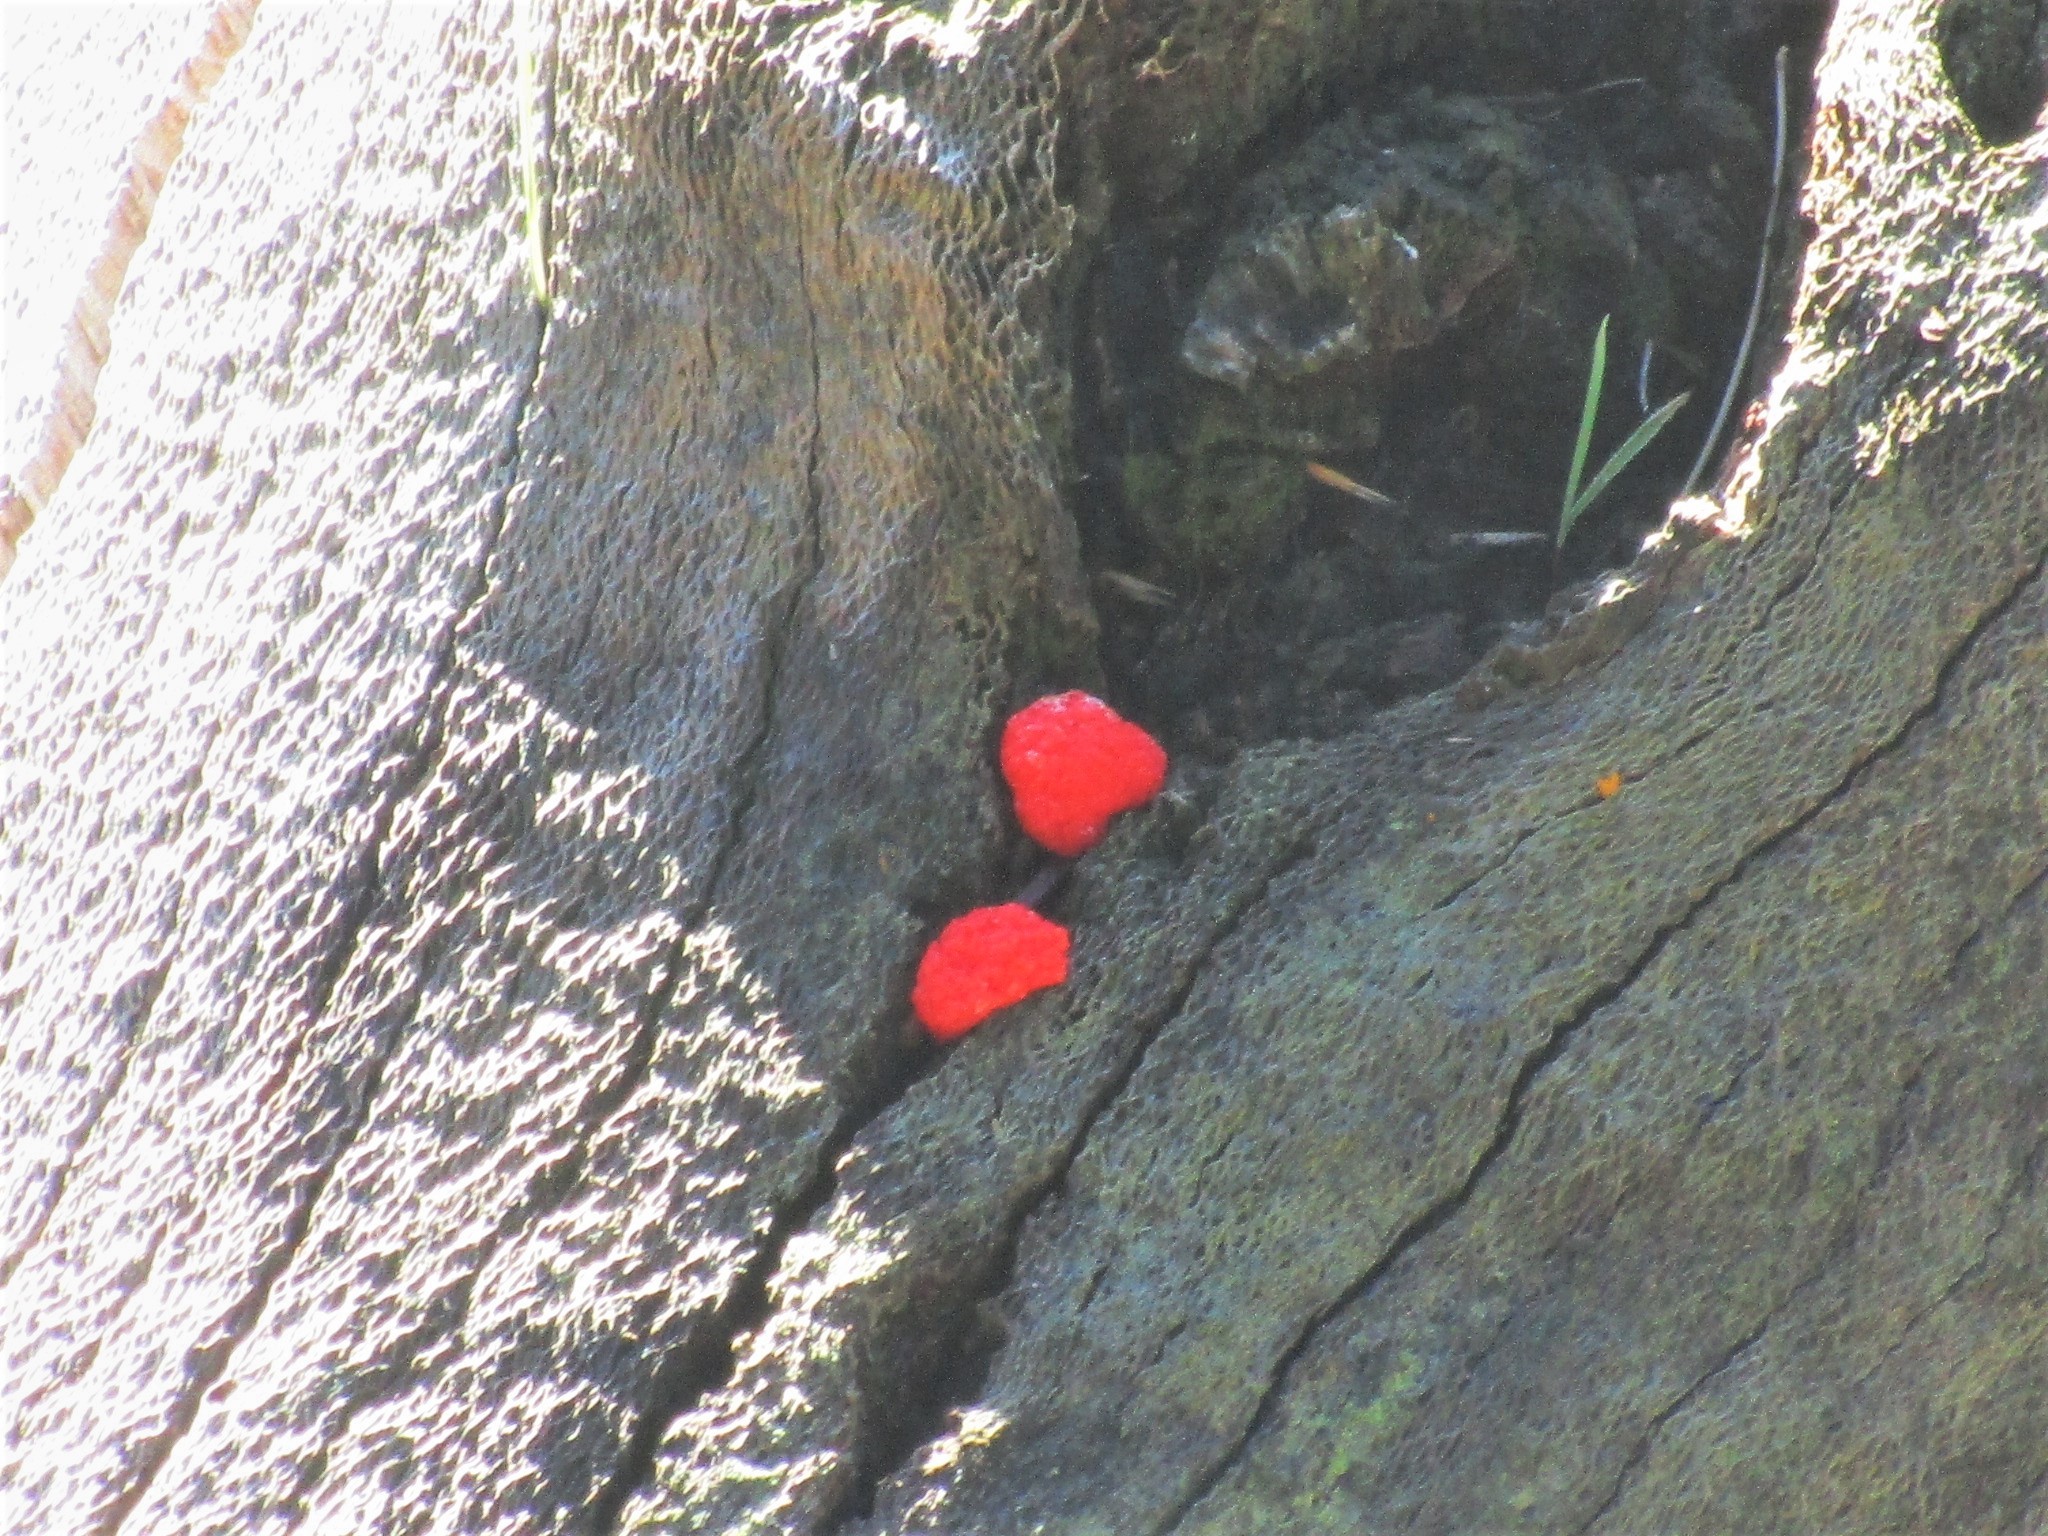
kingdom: Protozoa
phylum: Mycetozoa
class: Myxomycetes
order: Cribrariales
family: Tubiferaceae
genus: Tubifera
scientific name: Tubifera ferruginosa
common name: Red raspberry slime mold
